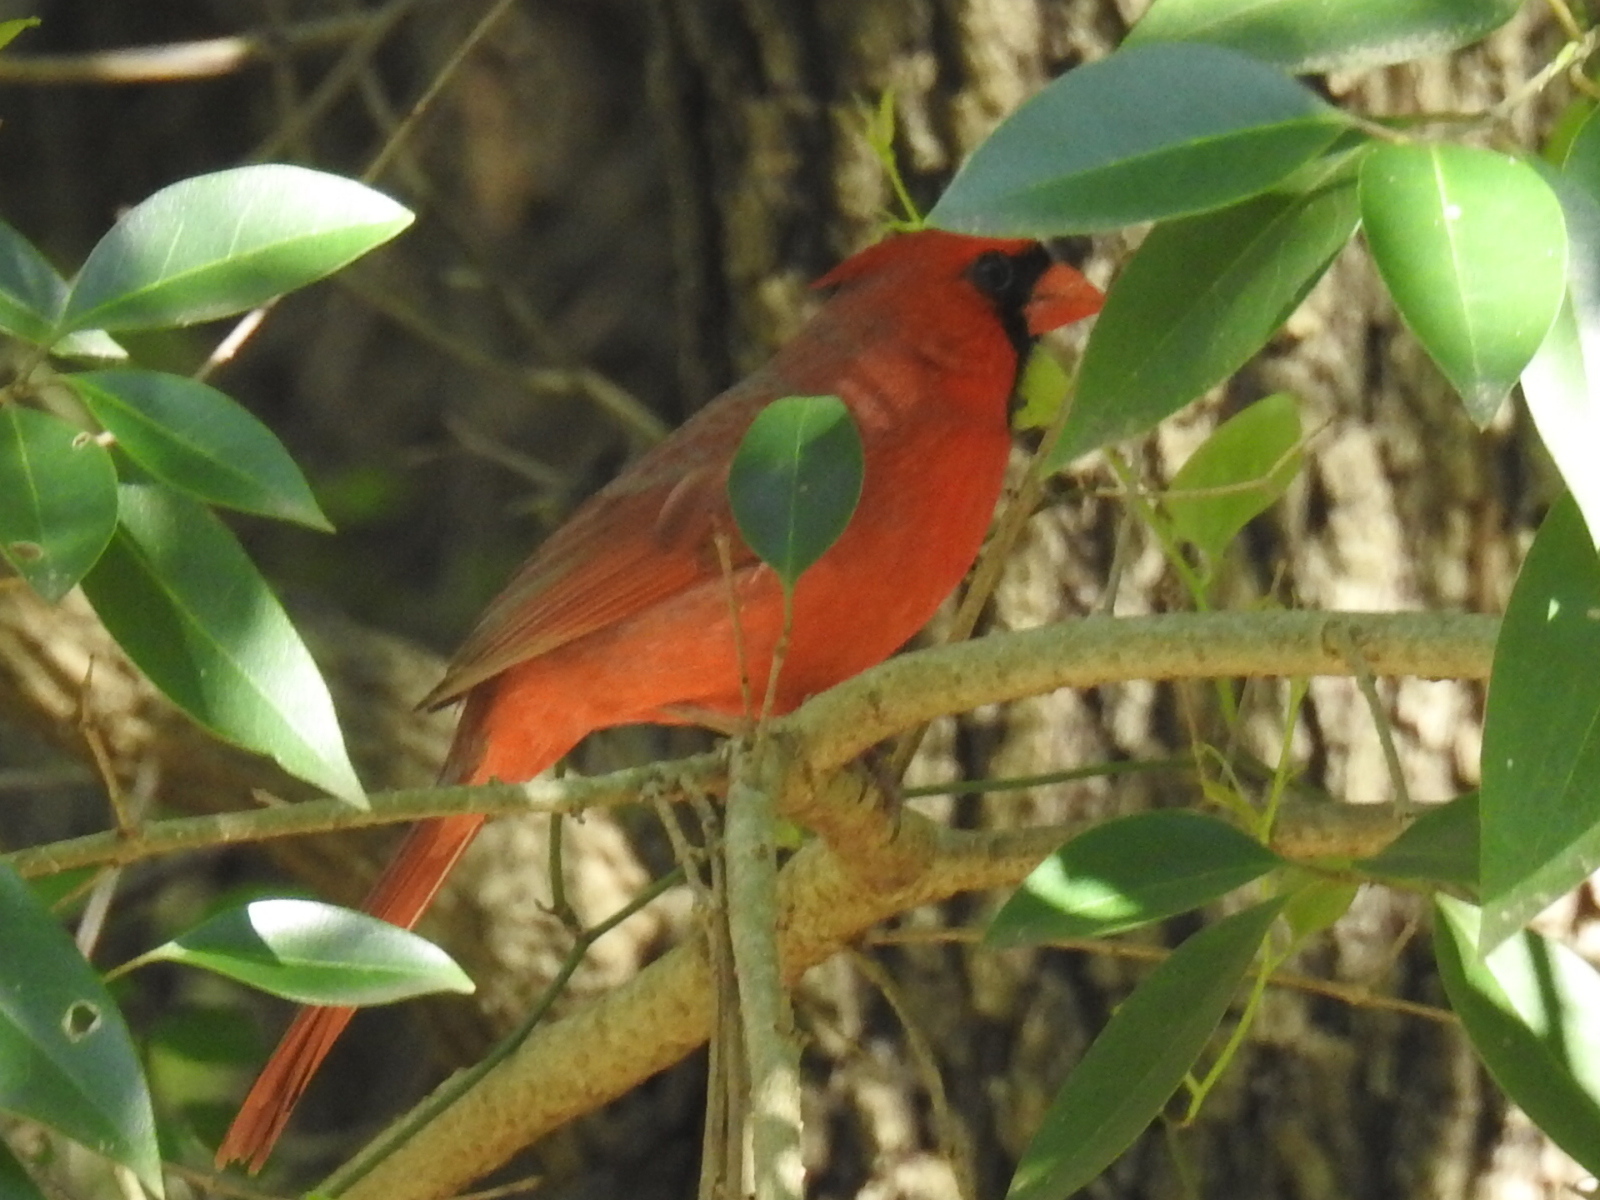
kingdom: Animalia
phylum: Chordata
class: Aves
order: Passeriformes
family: Cardinalidae
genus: Cardinalis
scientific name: Cardinalis cardinalis
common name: Northern cardinal
